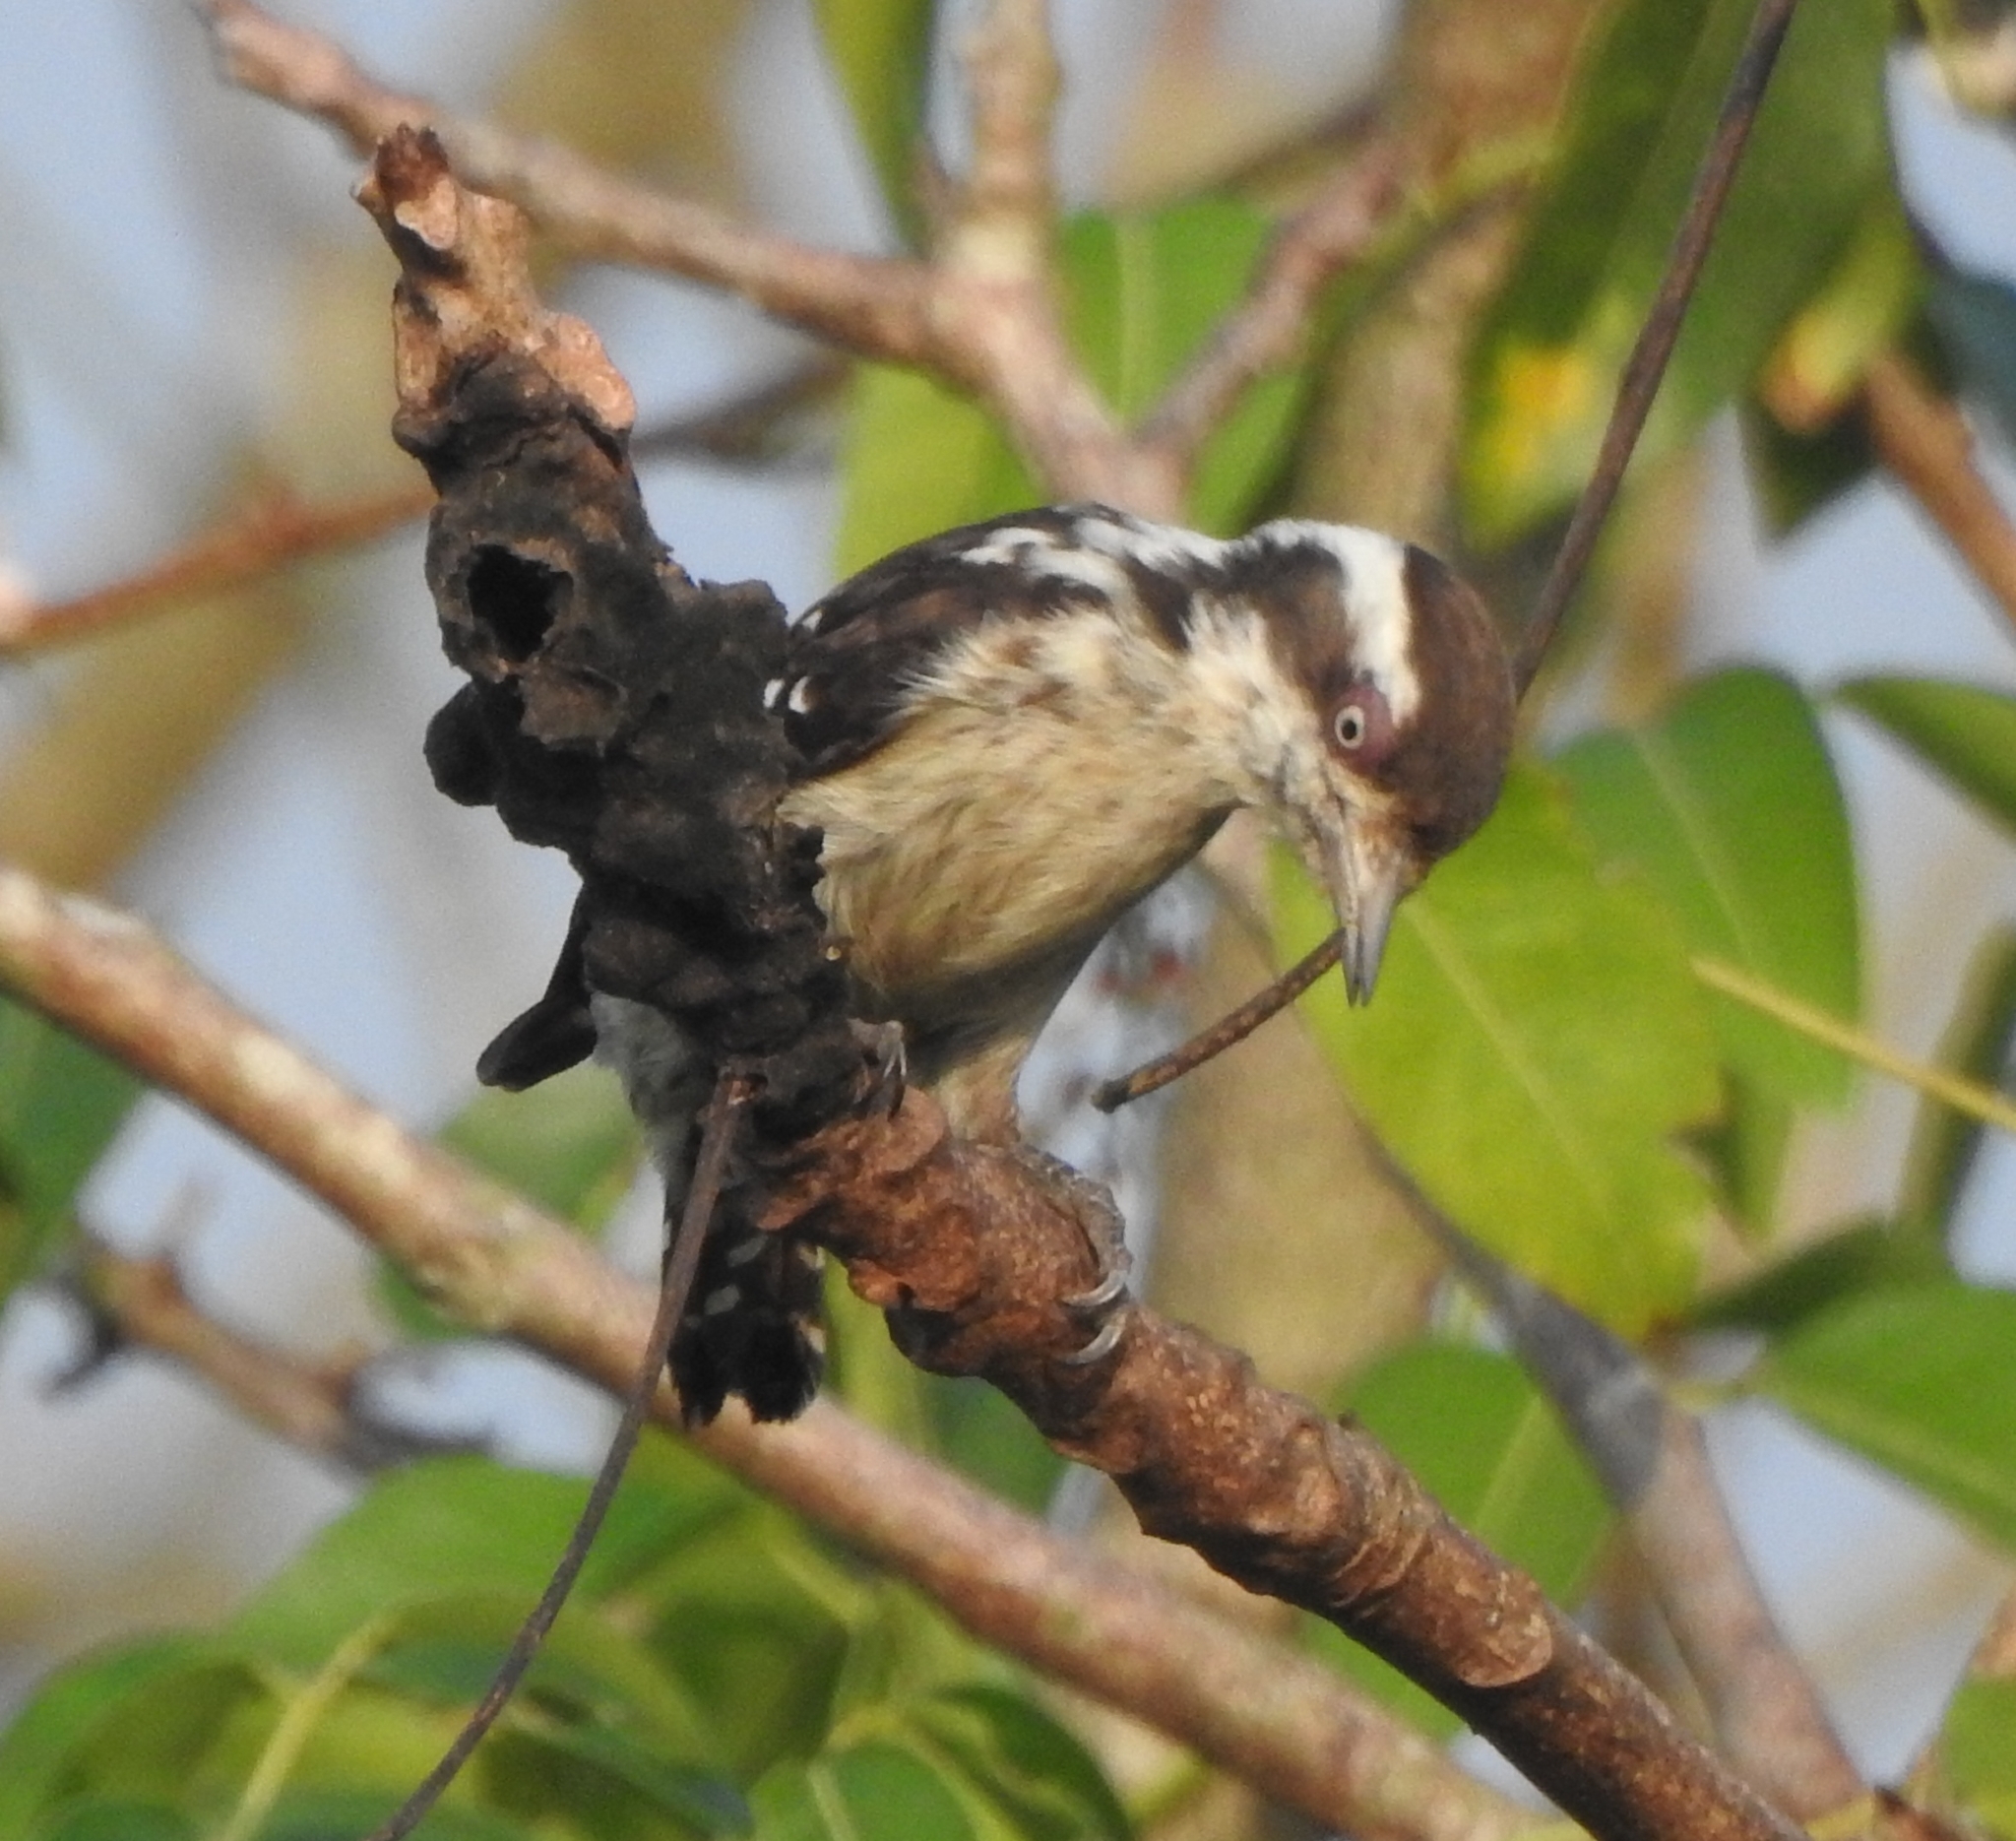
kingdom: Animalia
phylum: Chordata
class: Aves
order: Piciformes
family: Picidae
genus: Yungipicus
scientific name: Yungipicus nanus
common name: Brown-capped pygmy woodpecker
